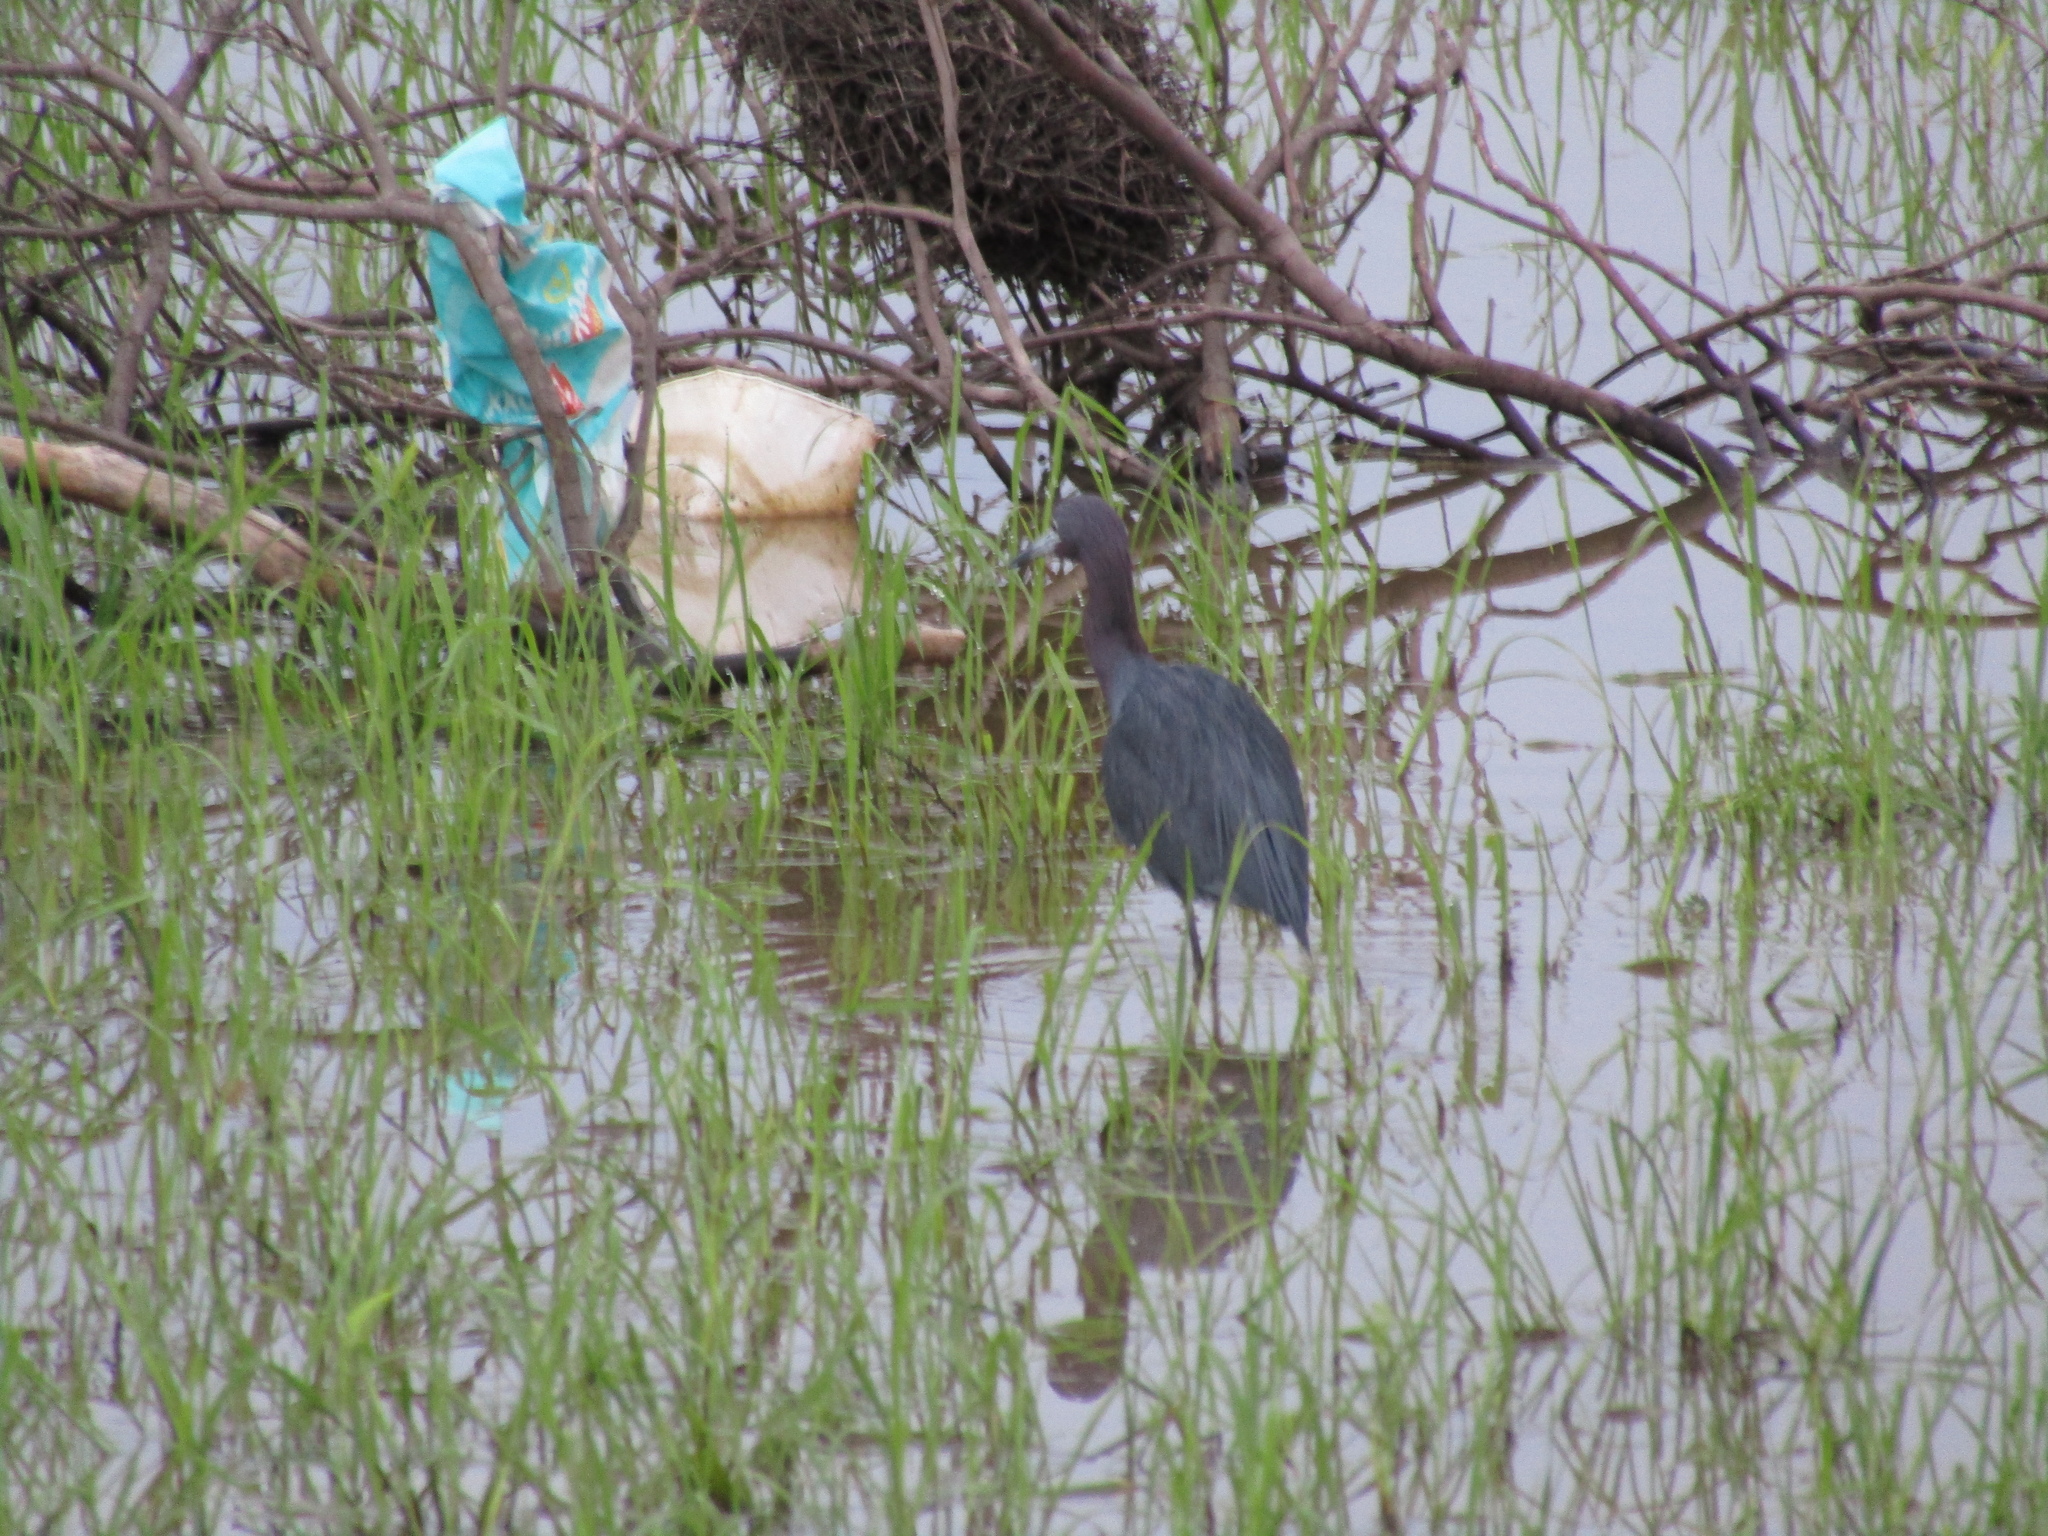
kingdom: Animalia
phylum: Chordata
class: Aves
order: Pelecaniformes
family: Ardeidae
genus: Egretta
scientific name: Egretta caerulea
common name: Little blue heron
